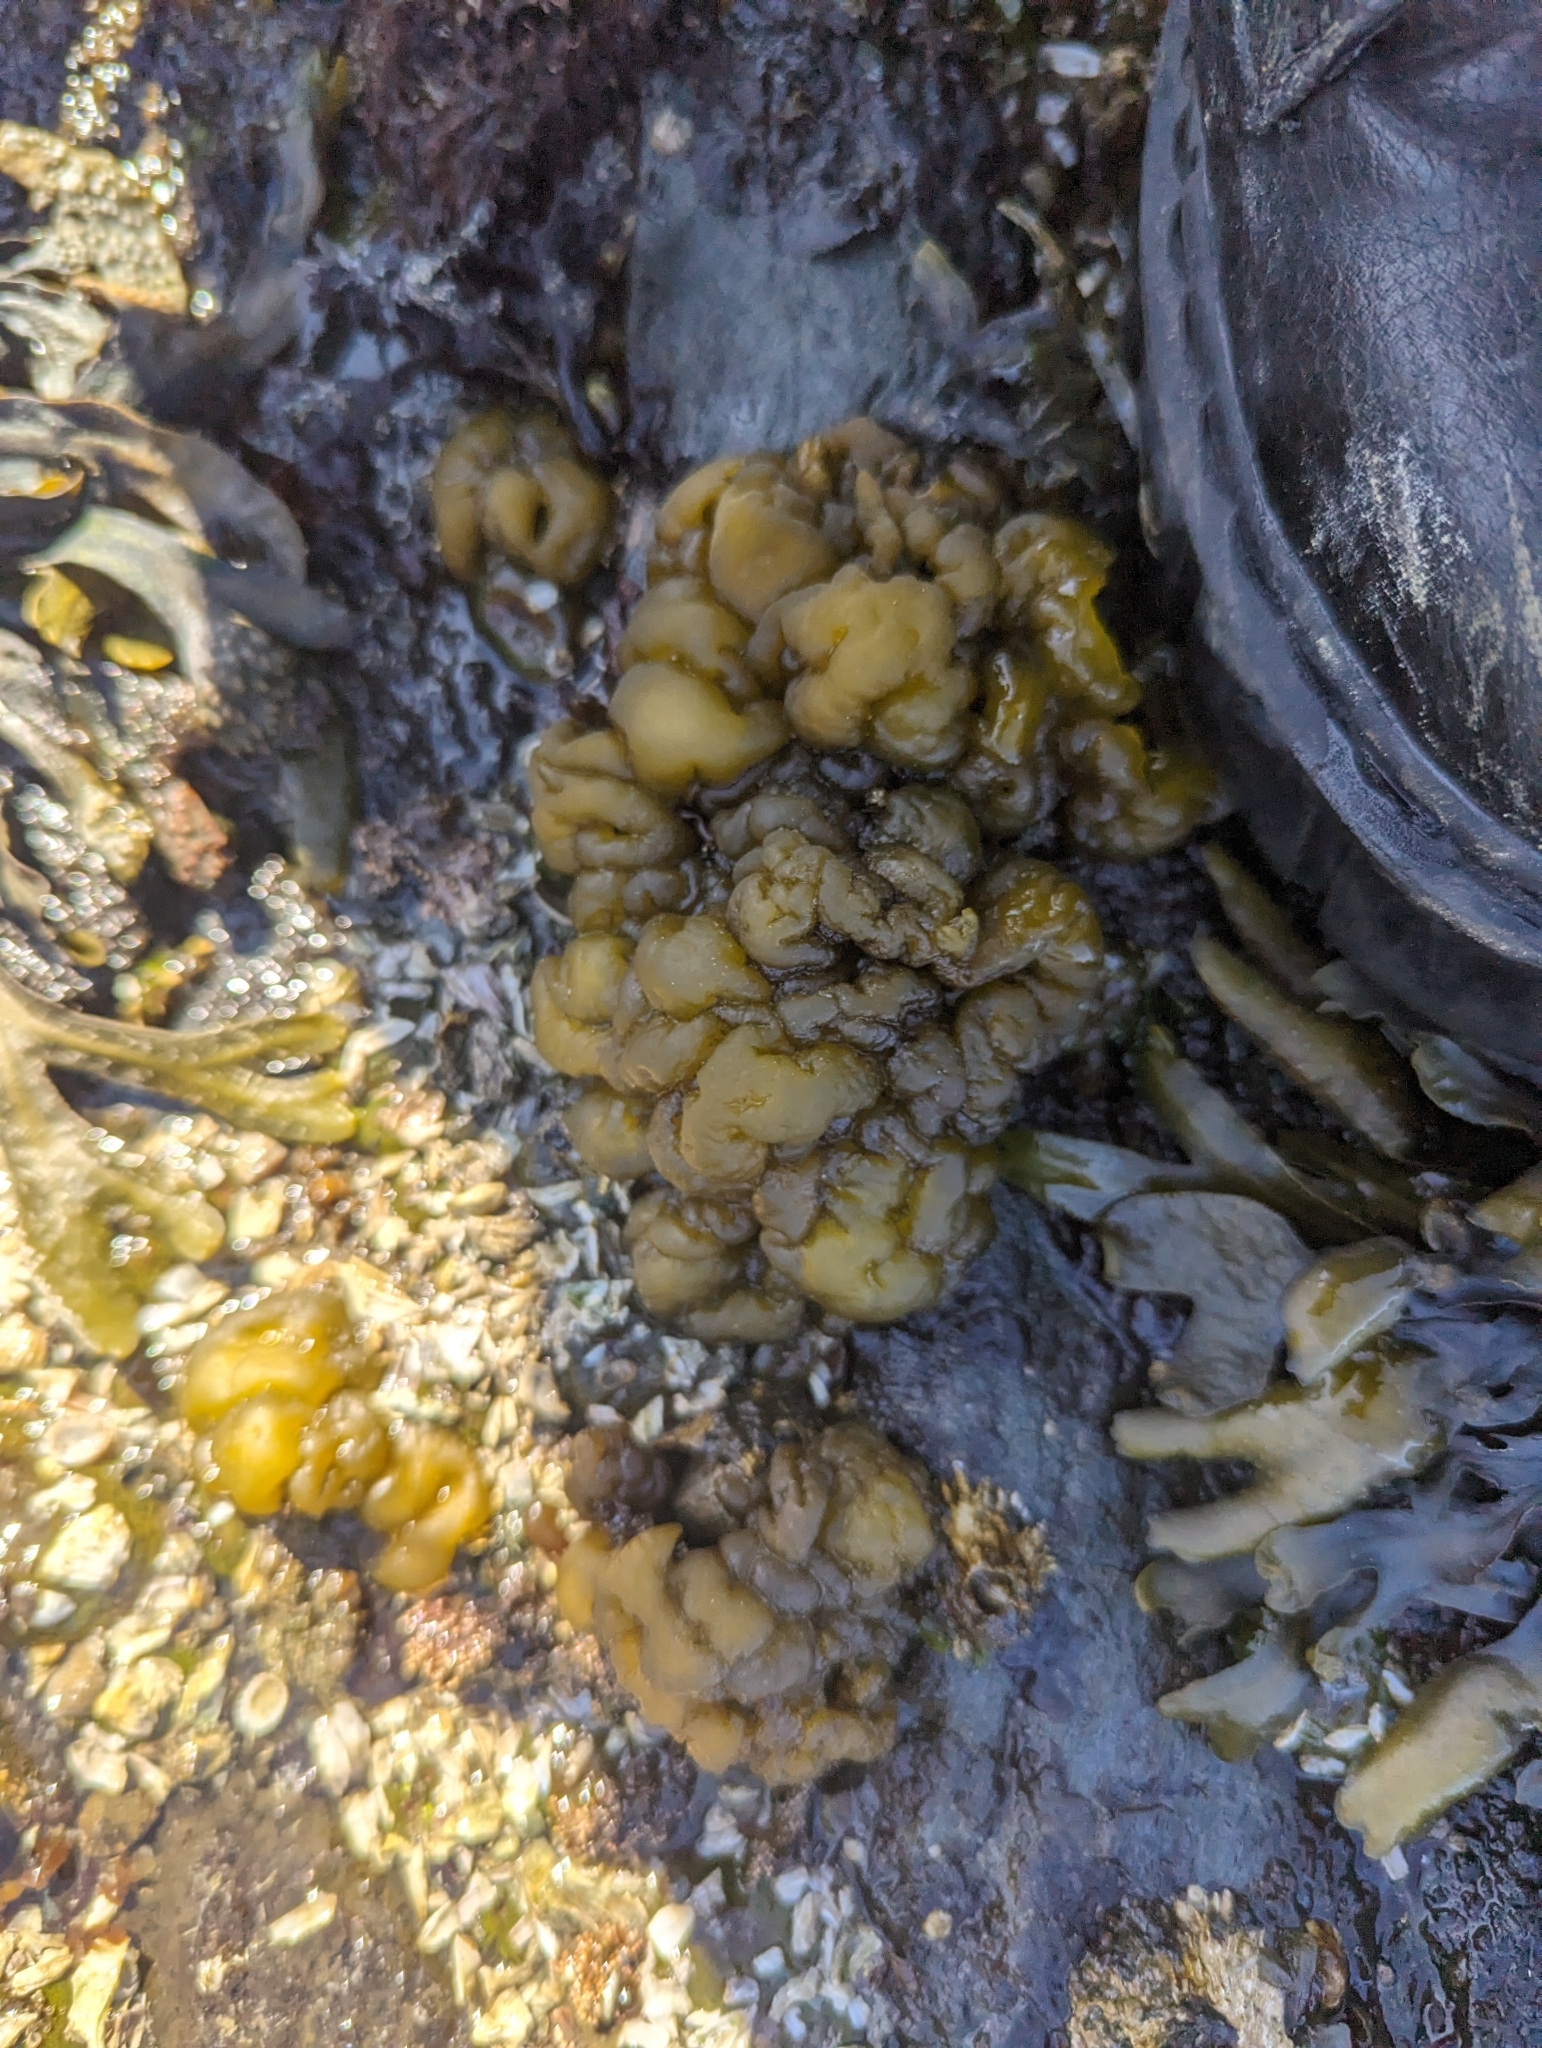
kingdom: Chromista
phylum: Ochrophyta
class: Phaeophyceae
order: Ectocarpales
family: Chordariaceae
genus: Leathesia
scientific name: Leathesia marina
